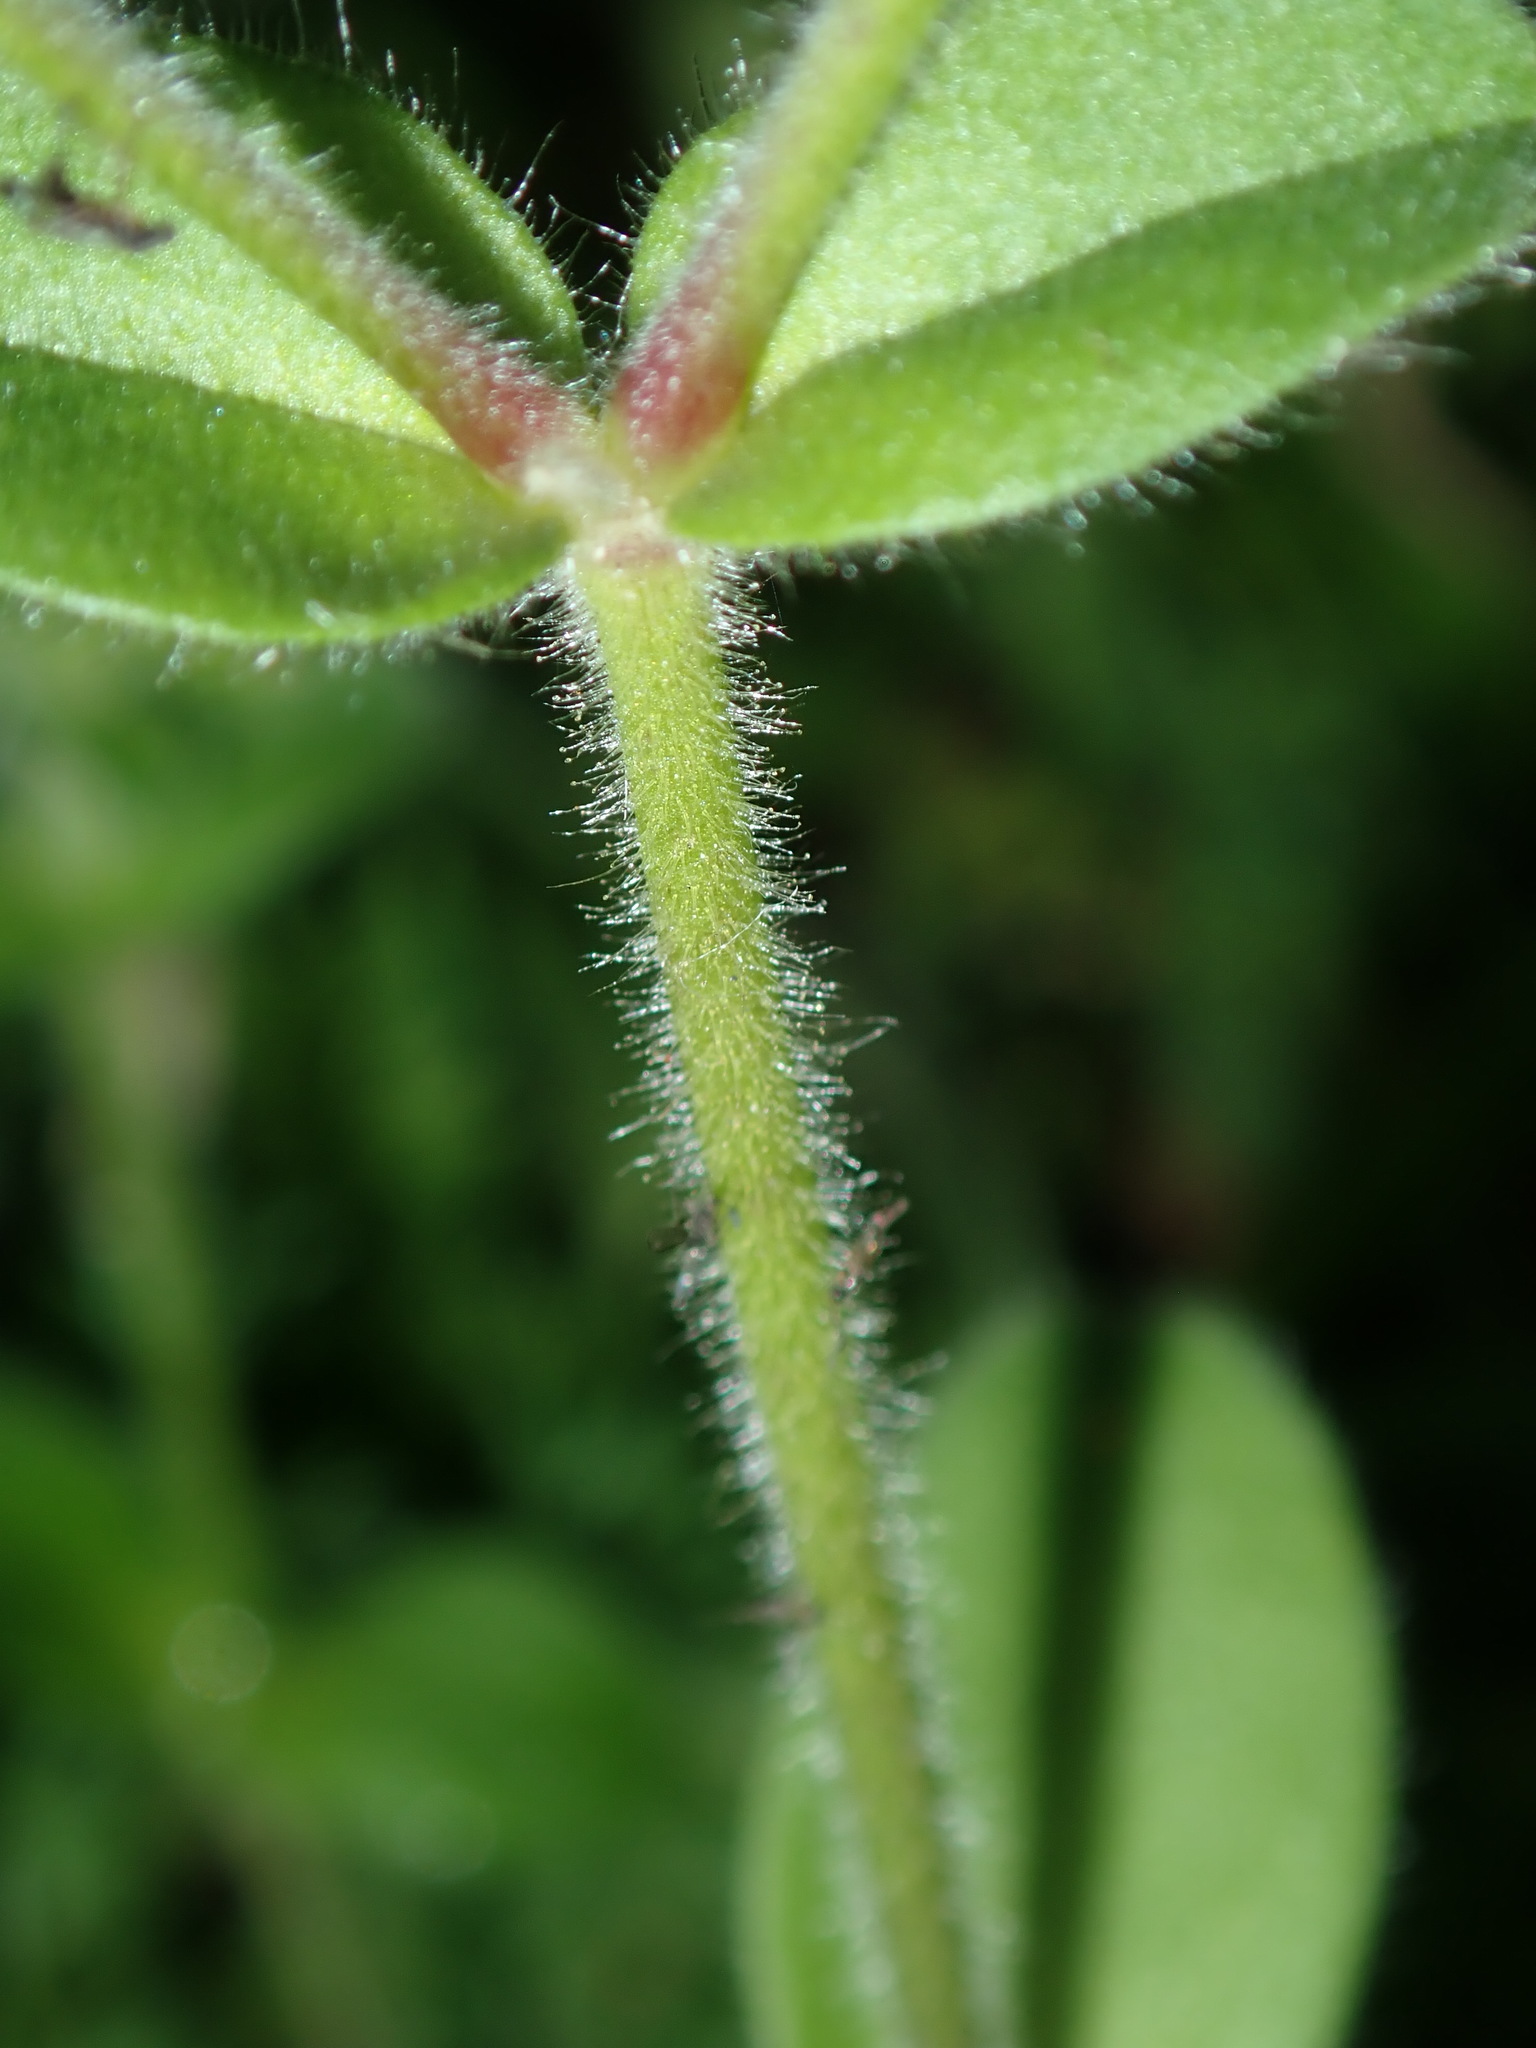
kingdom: Plantae
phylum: Tracheophyta
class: Magnoliopsida
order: Caryophyllales
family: Caryophyllaceae
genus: Cerastium
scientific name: Cerastium glomeratum
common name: Sticky chickweed
